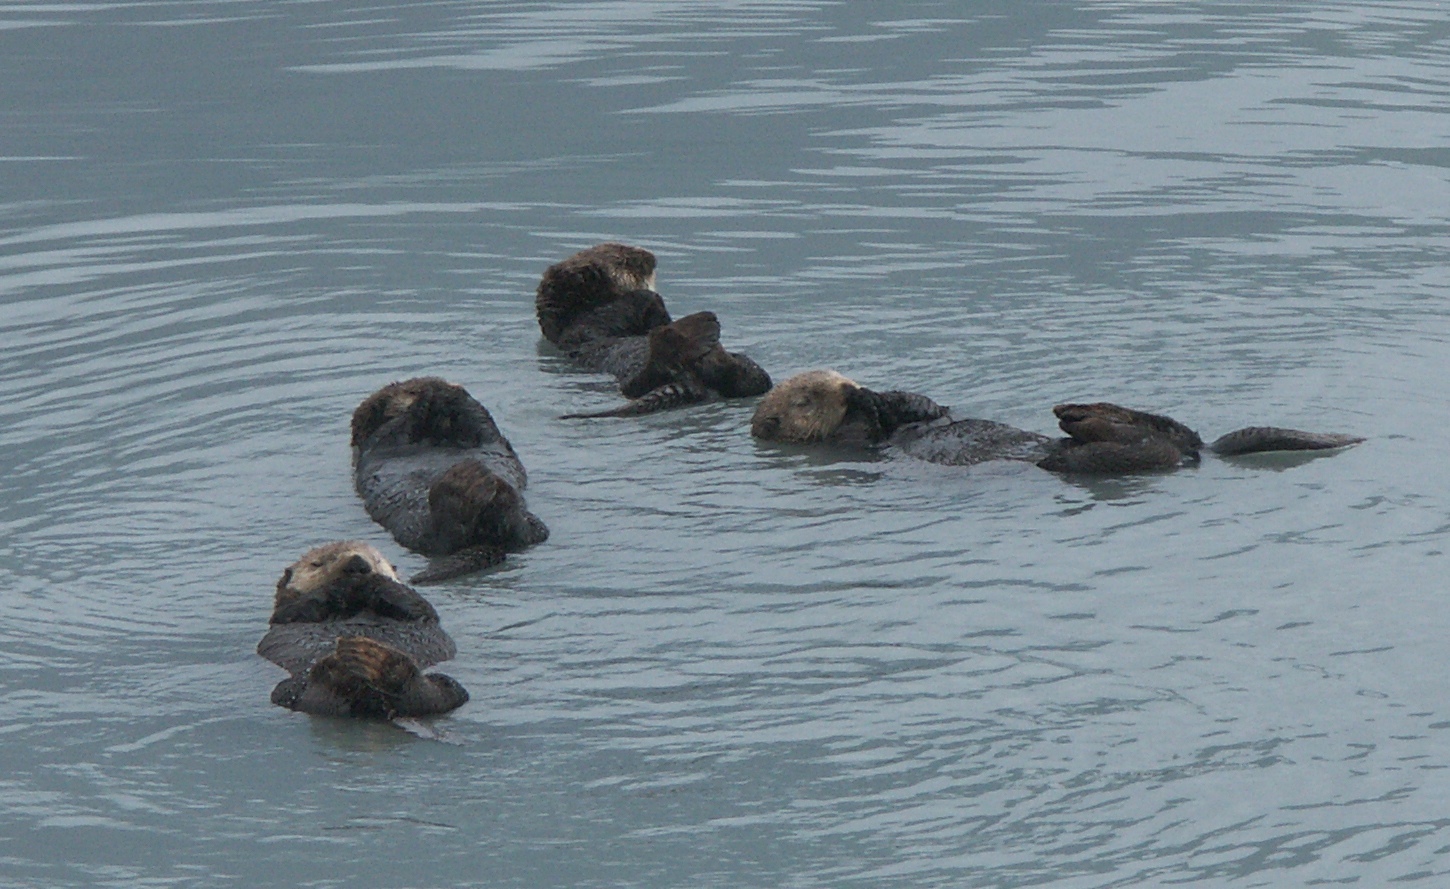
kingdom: Animalia
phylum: Chordata
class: Mammalia
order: Carnivora
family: Mustelidae
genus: Enhydra
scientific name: Enhydra lutris
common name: Sea otter
